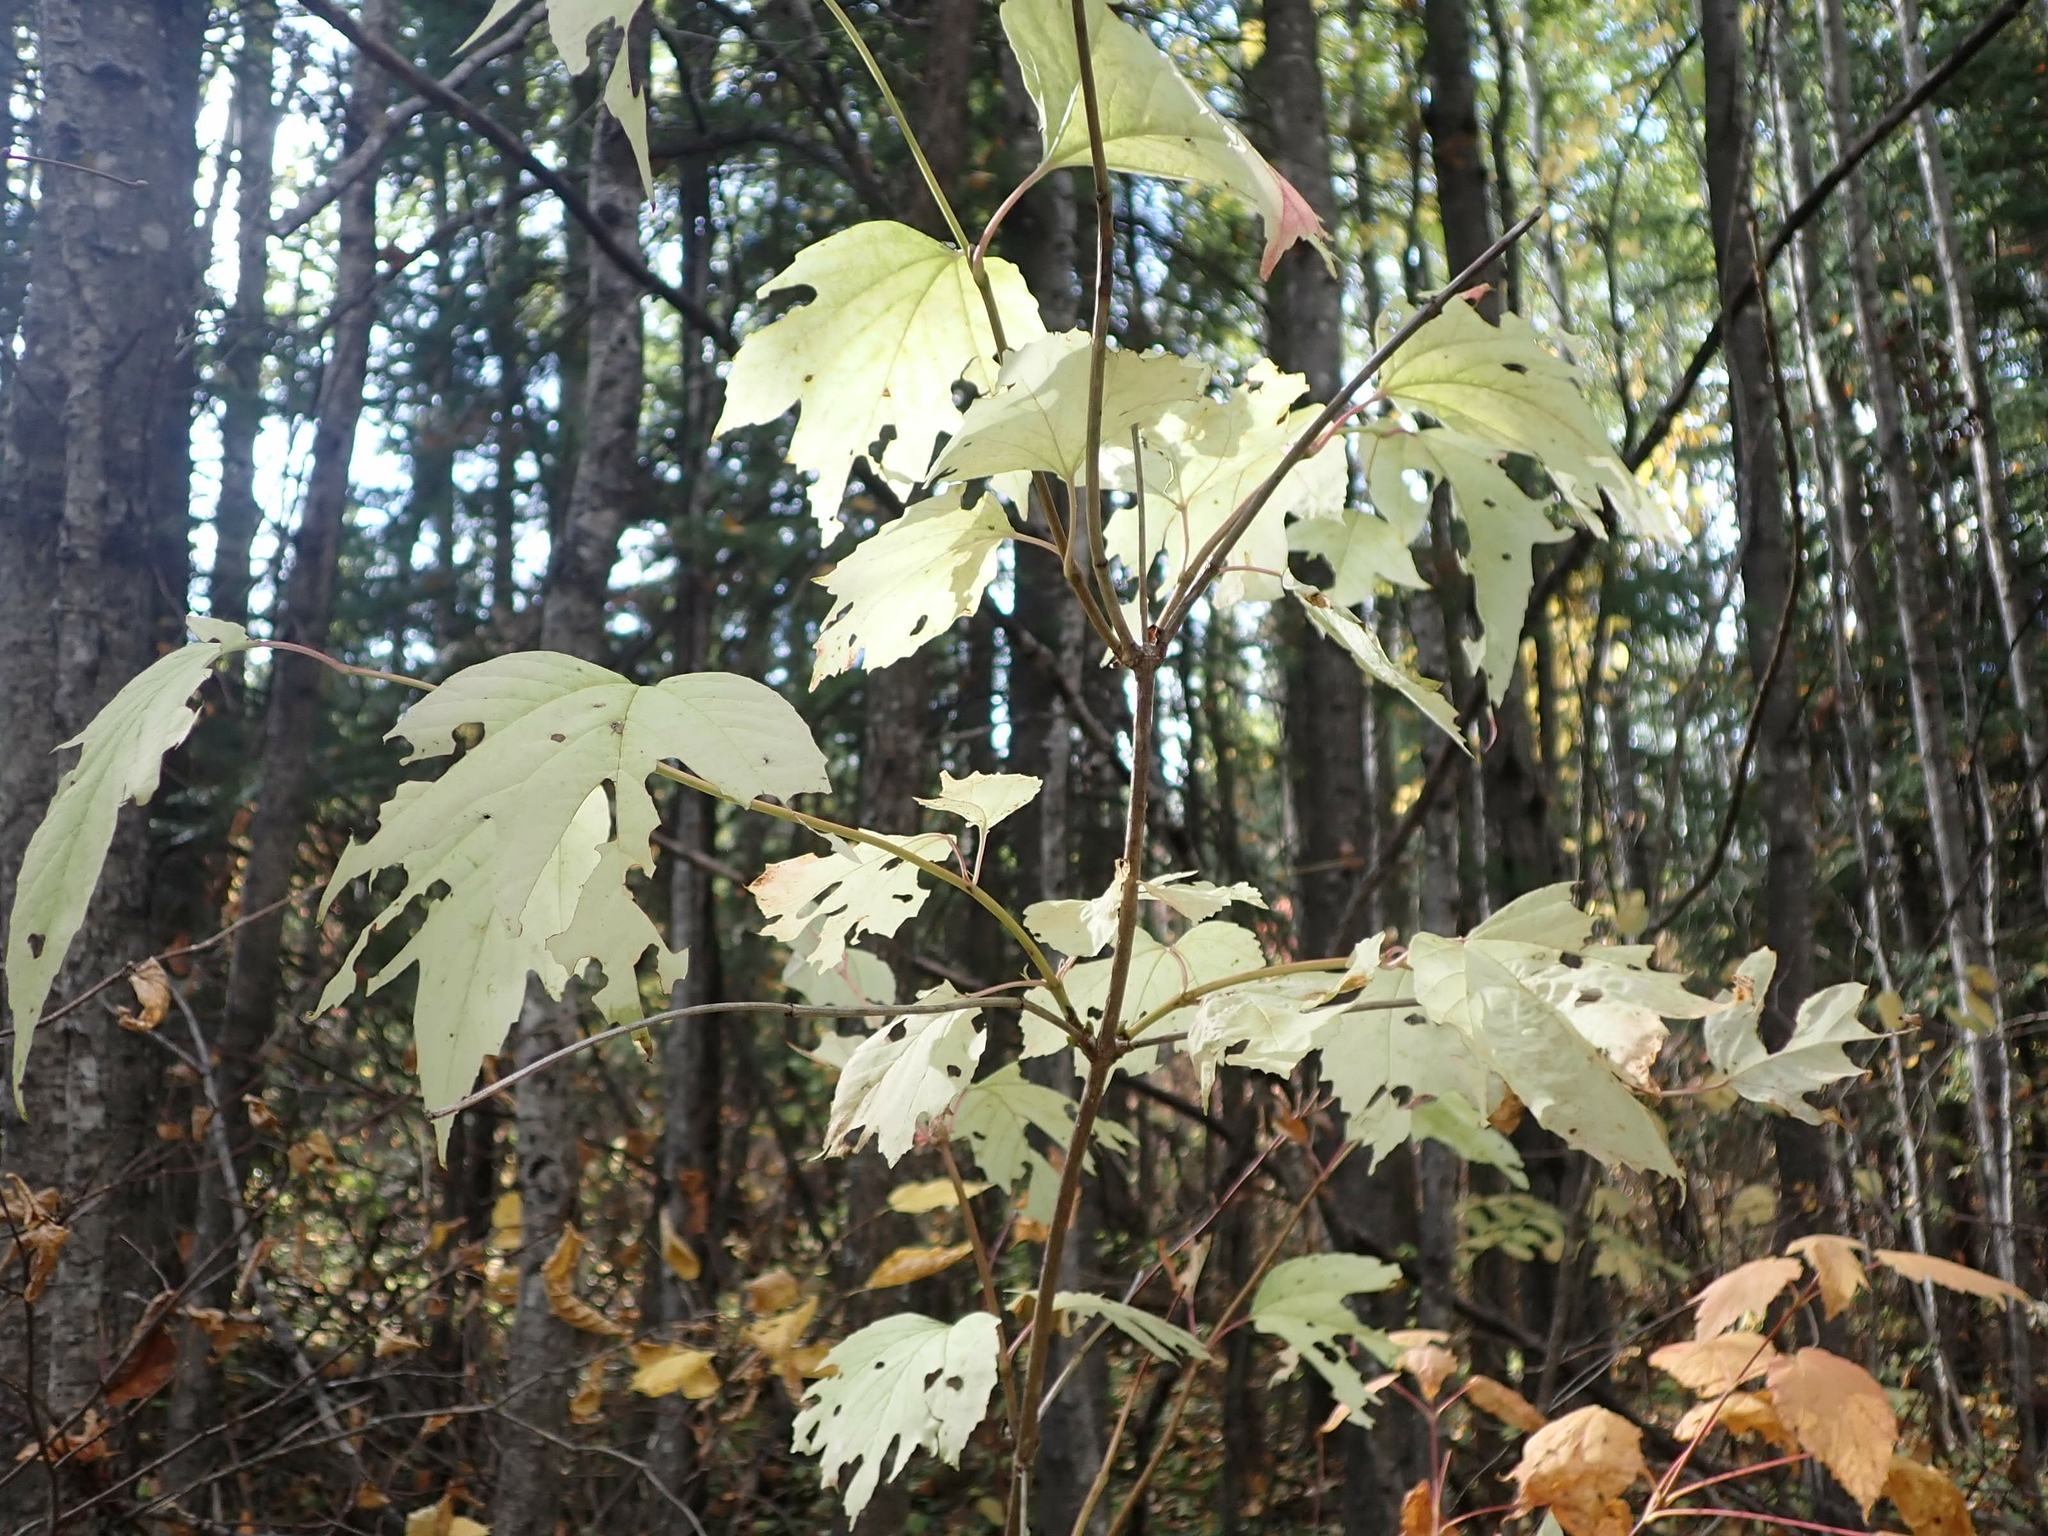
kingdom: Plantae
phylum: Tracheophyta
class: Magnoliopsida
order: Dipsacales
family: Viburnaceae
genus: Viburnum
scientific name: Viburnum trilobum
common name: American cranberrybush
